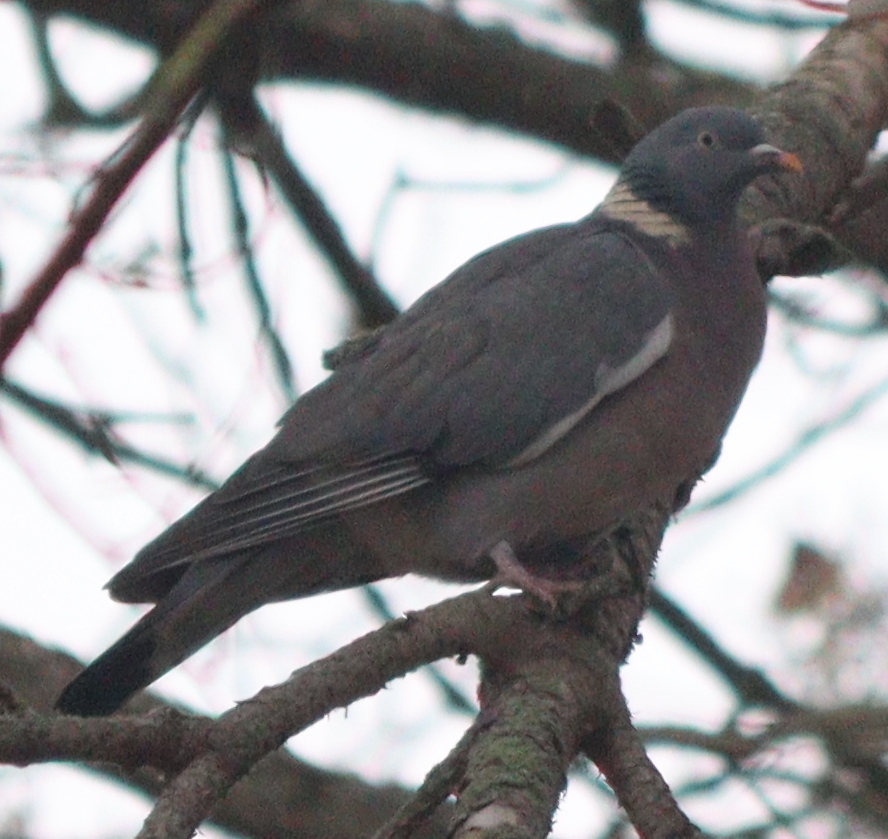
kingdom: Animalia
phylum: Chordata
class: Aves
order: Columbiformes
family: Columbidae
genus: Columba
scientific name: Columba palumbus
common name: Common wood pigeon
